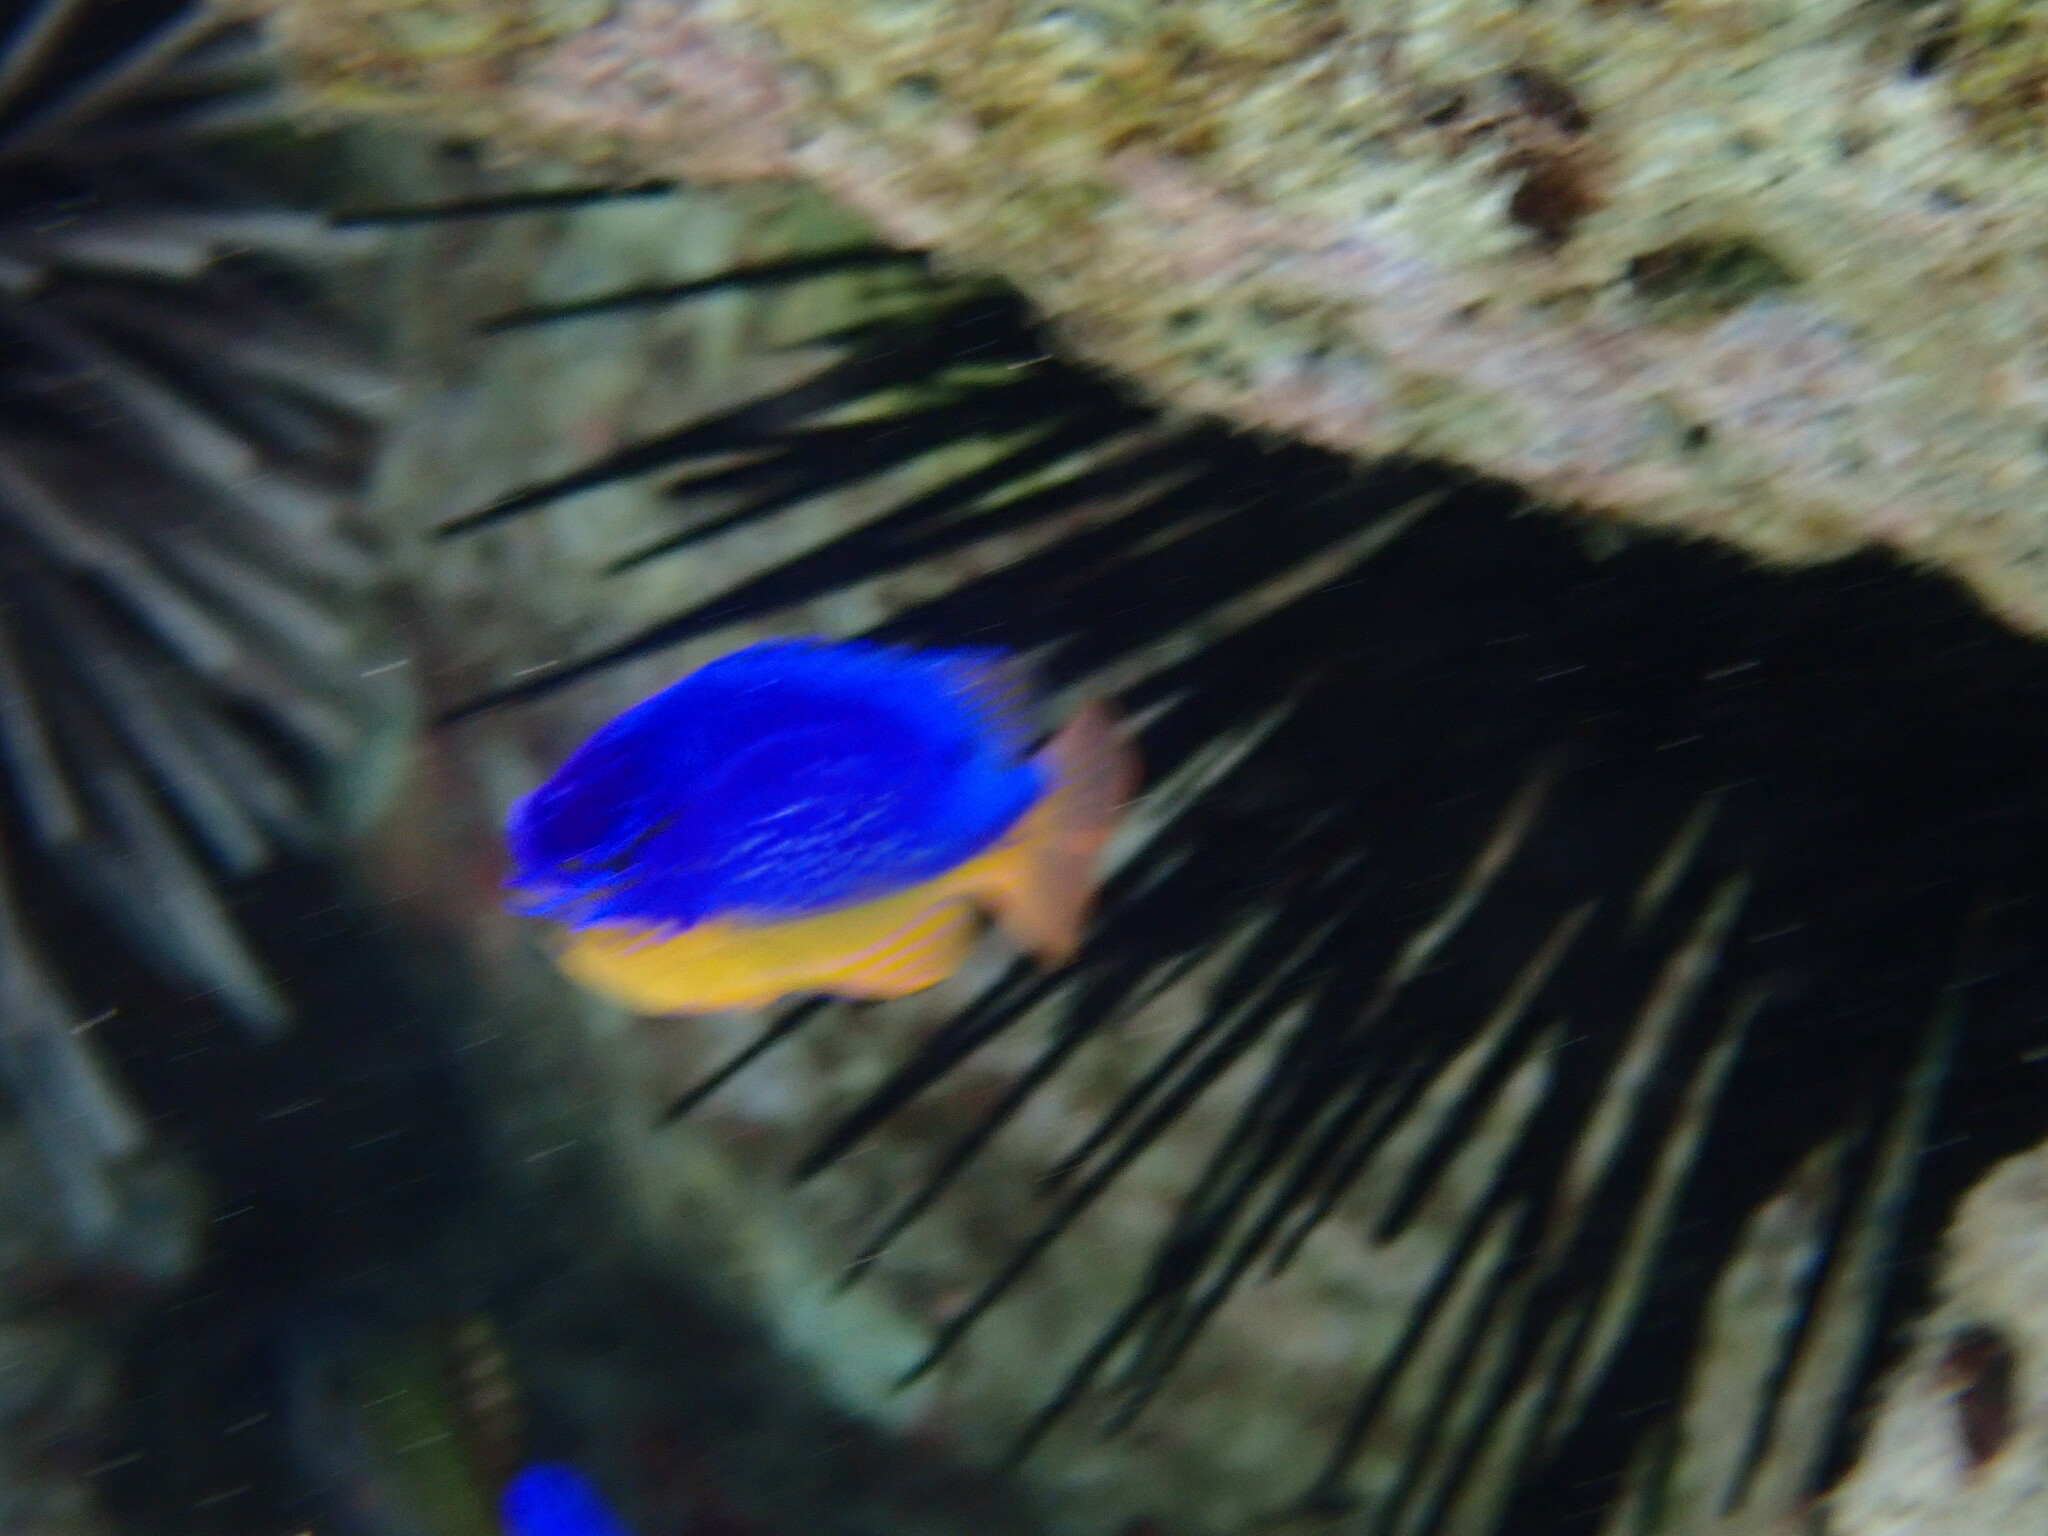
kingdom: Animalia
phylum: Chordata
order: Perciformes
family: Pomacentridae
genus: Chrysiptera
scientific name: Chrysiptera taupou
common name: Fiji damsel
